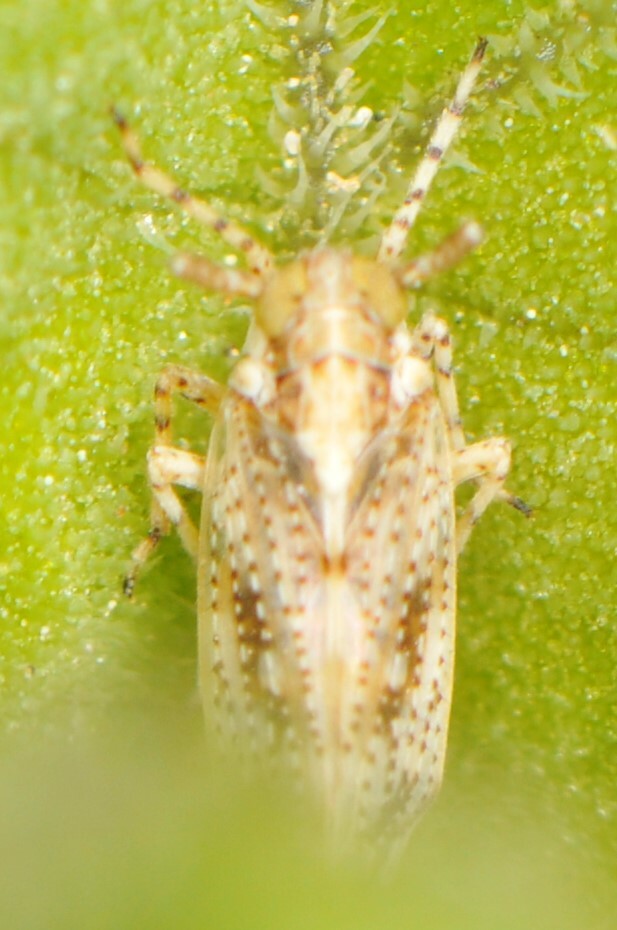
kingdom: Animalia
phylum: Arthropoda
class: Insecta
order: Hemiptera
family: Delphacidae
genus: Stobaera
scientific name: Stobaera
